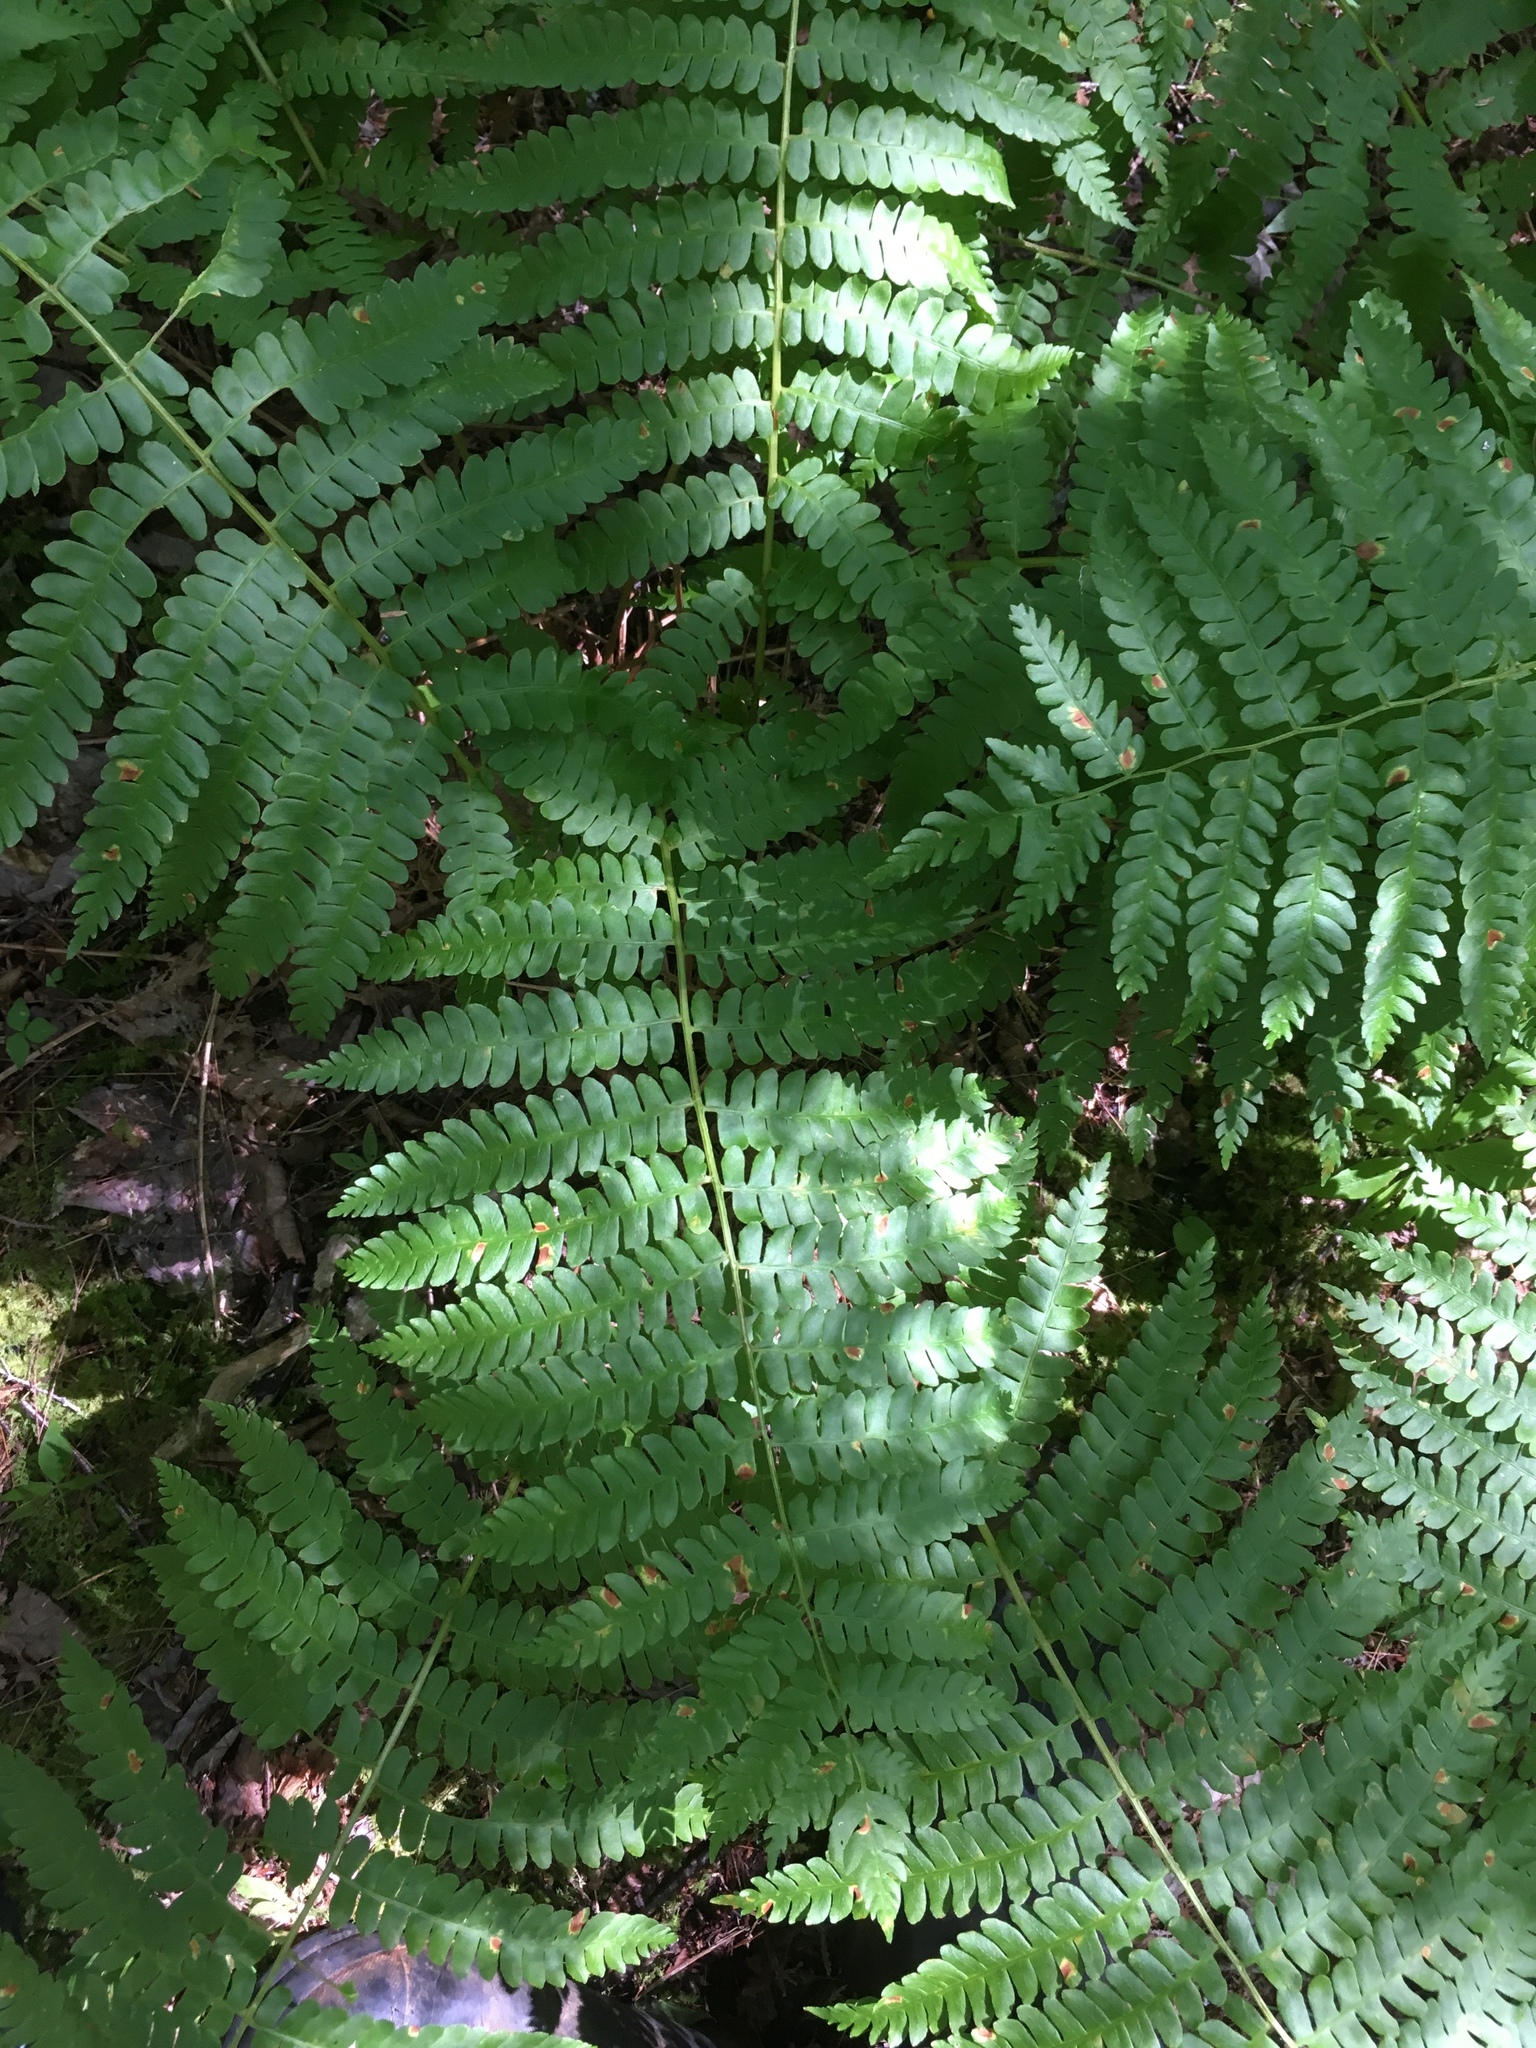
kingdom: Plantae
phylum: Tracheophyta
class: Polypodiopsida
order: Osmundales
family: Osmundaceae
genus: Osmundastrum
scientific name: Osmundastrum cinnamomeum
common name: Cinnamon fern
